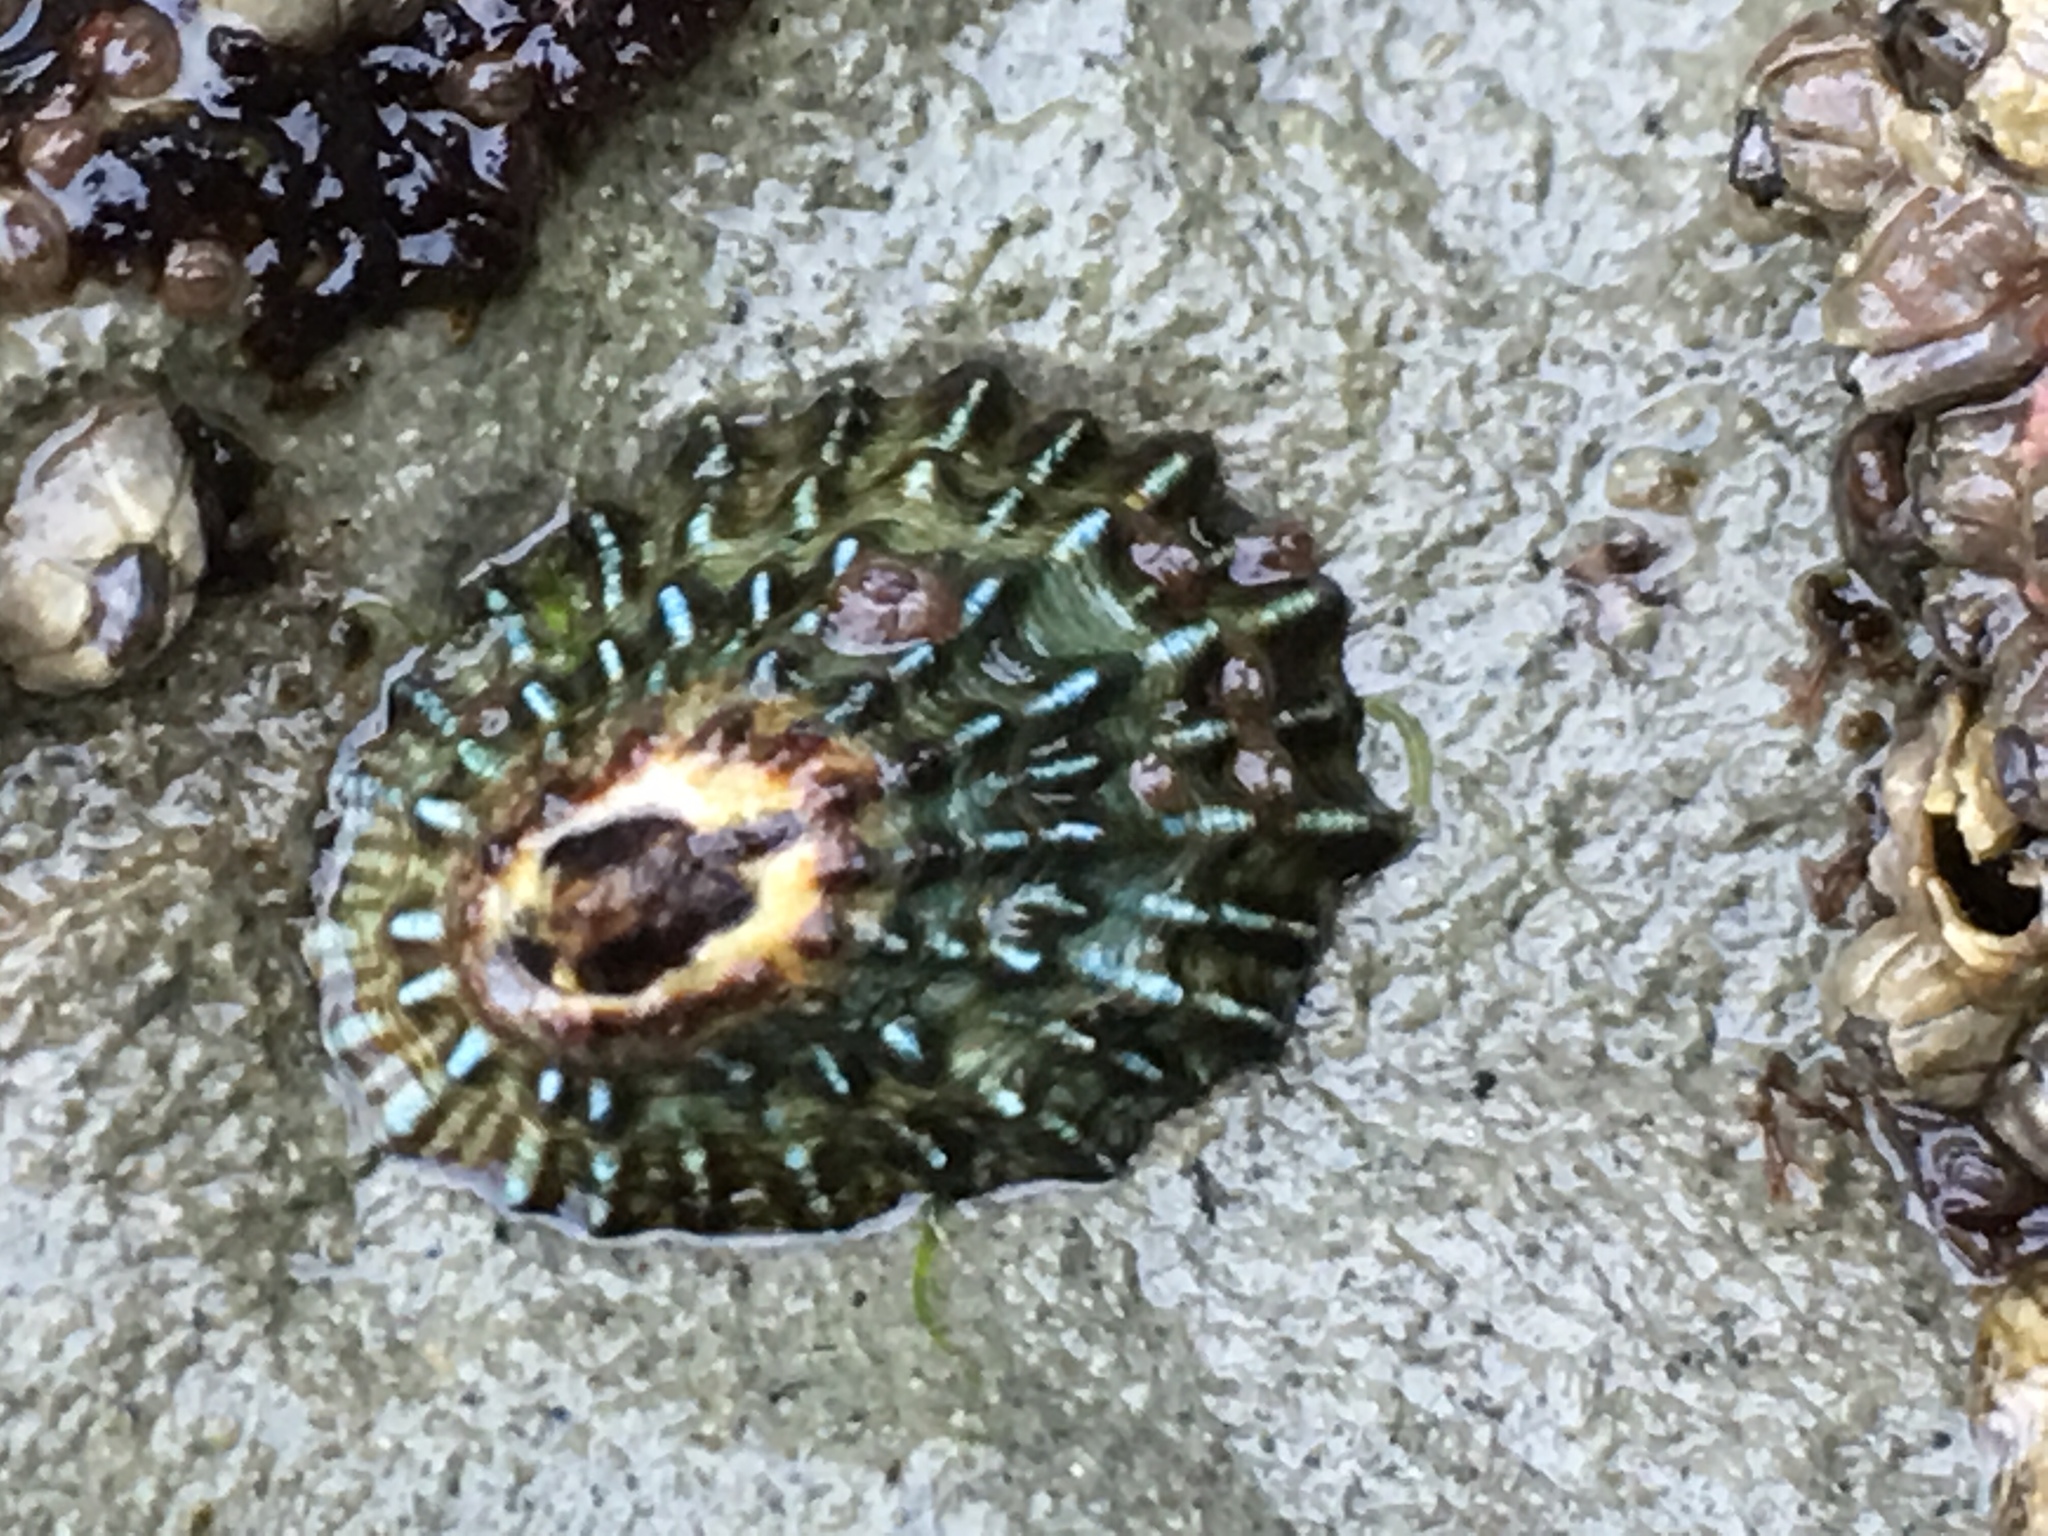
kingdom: Animalia
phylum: Mollusca
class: Gastropoda
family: Lottiidae
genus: Lottia
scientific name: Lottia scabra
